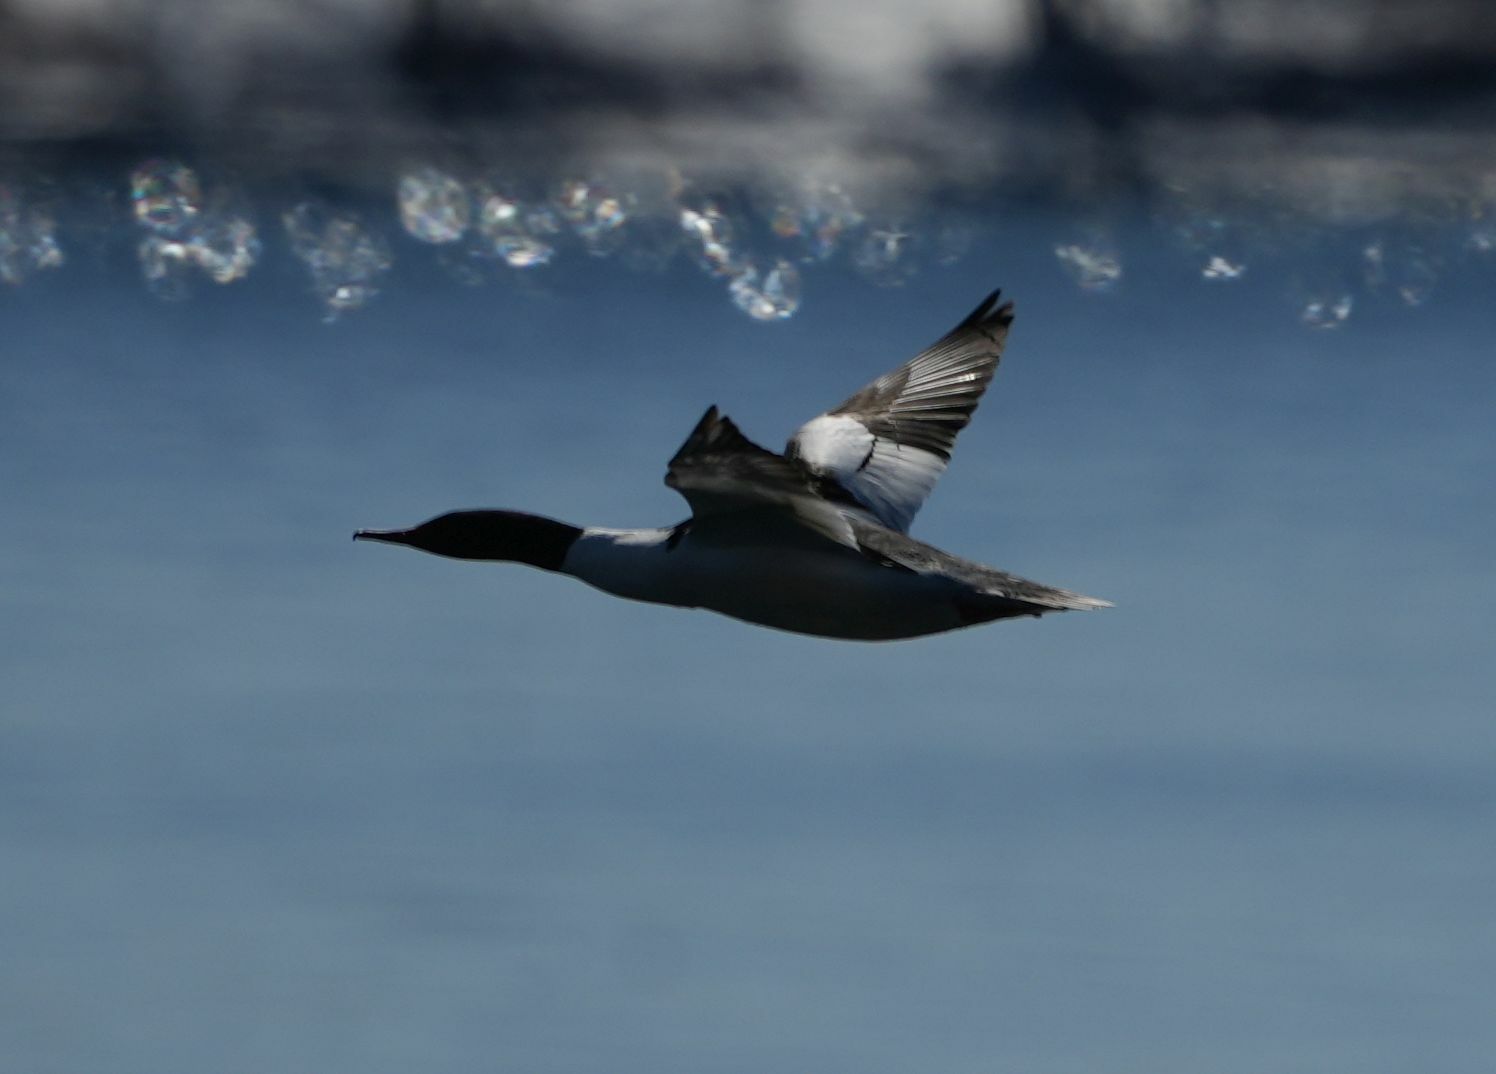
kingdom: Animalia
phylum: Chordata
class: Aves
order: Anseriformes
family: Anatidae
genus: Mergus
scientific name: Mergus merganser
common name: Common merganser
